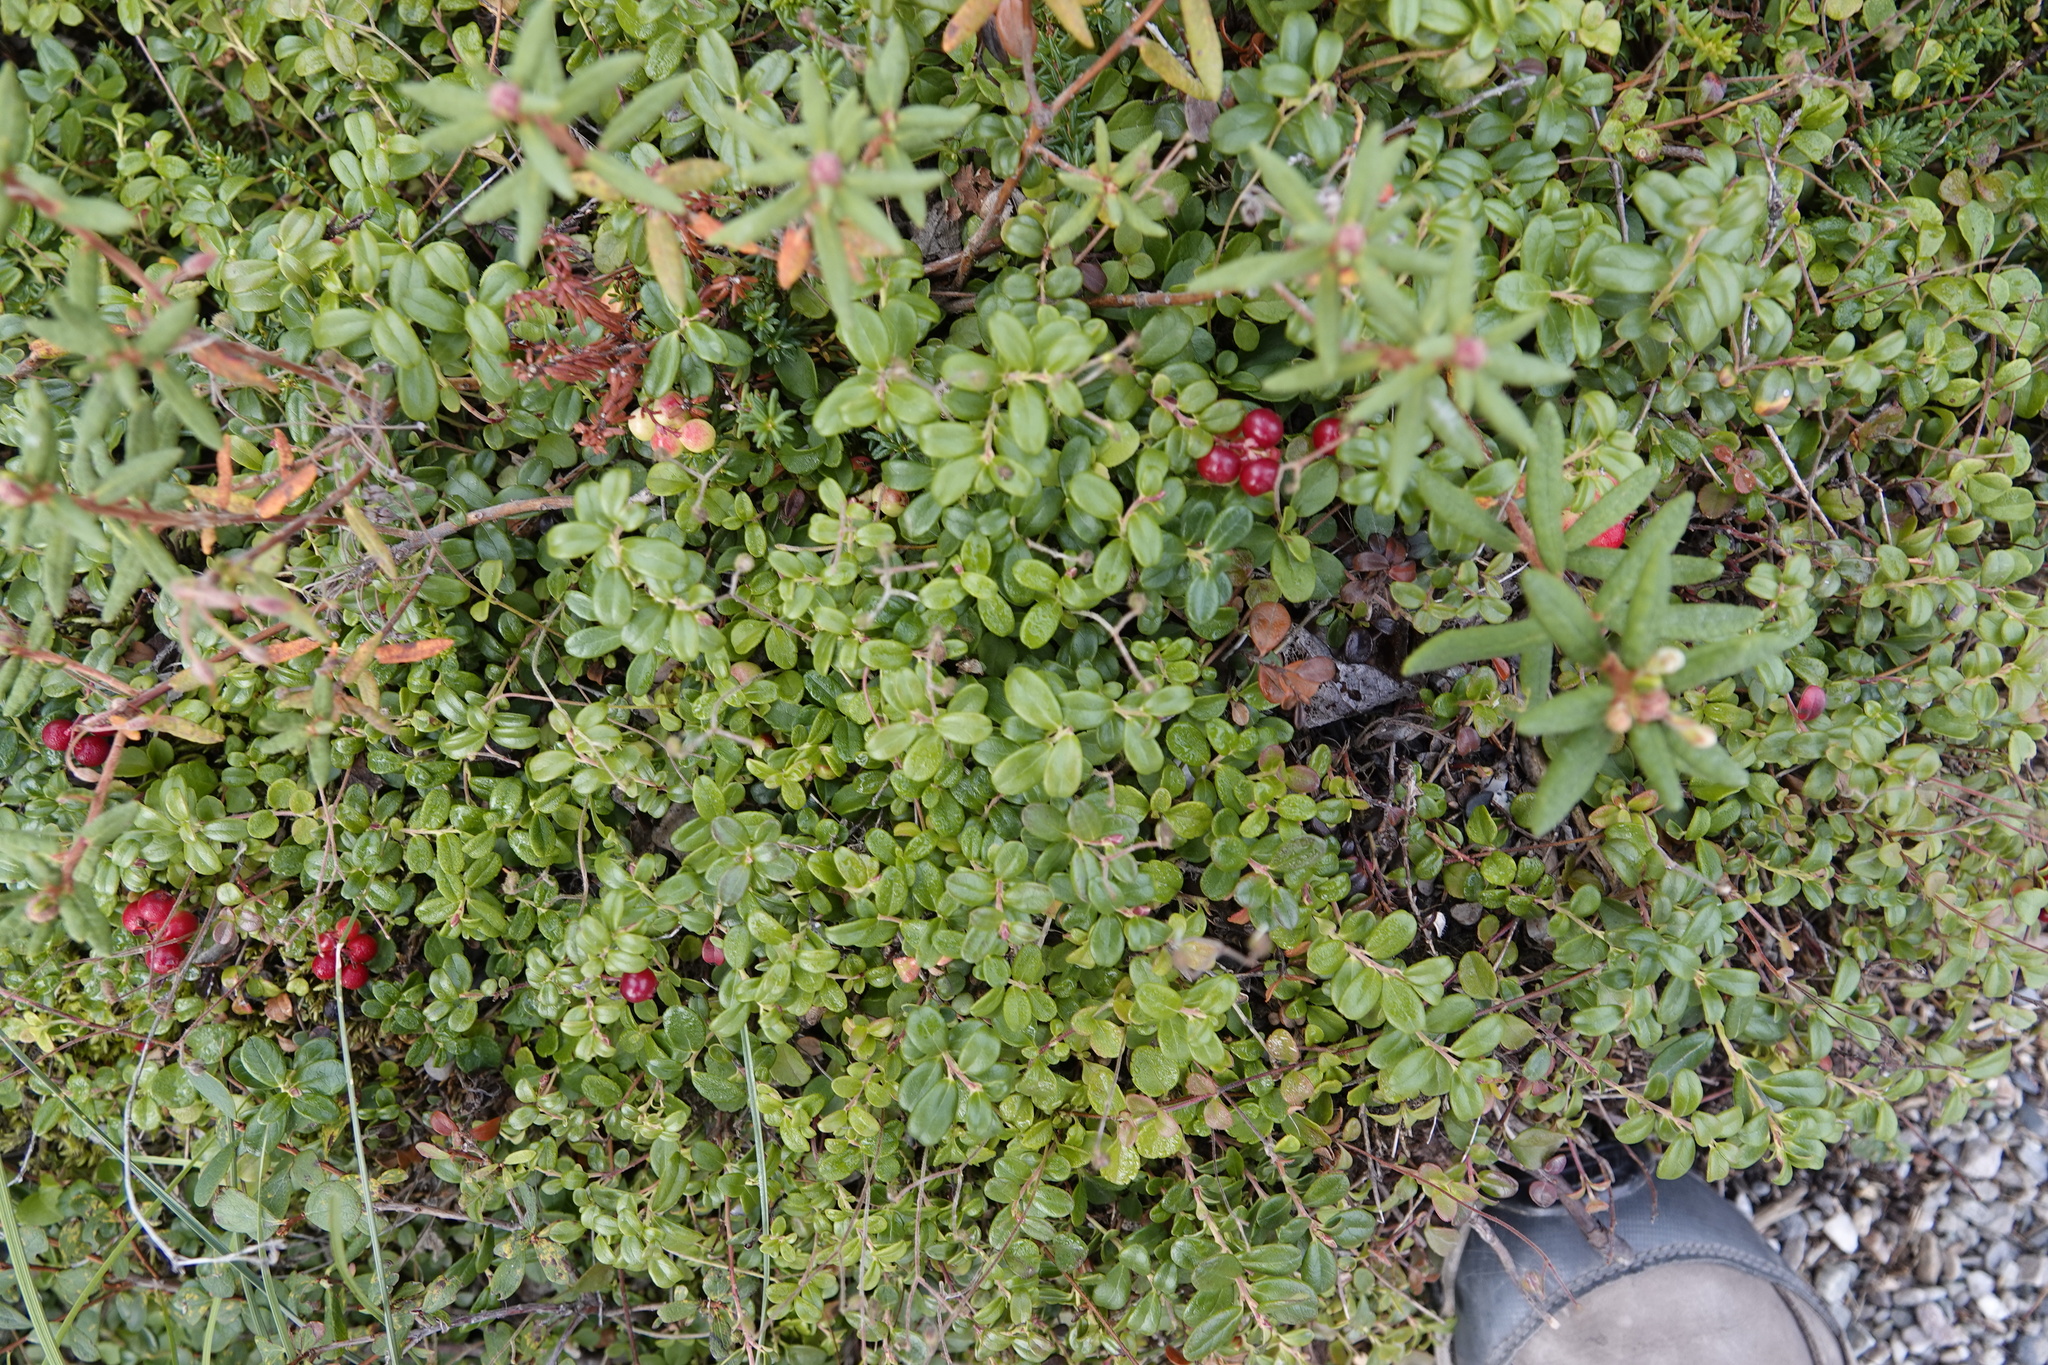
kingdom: Plantae
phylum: Tracheophyta
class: Magnoliopsida
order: Ericales
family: Ericaceae
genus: Vaccinium
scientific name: Vaccinium vitis-idaea
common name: Cowberry
